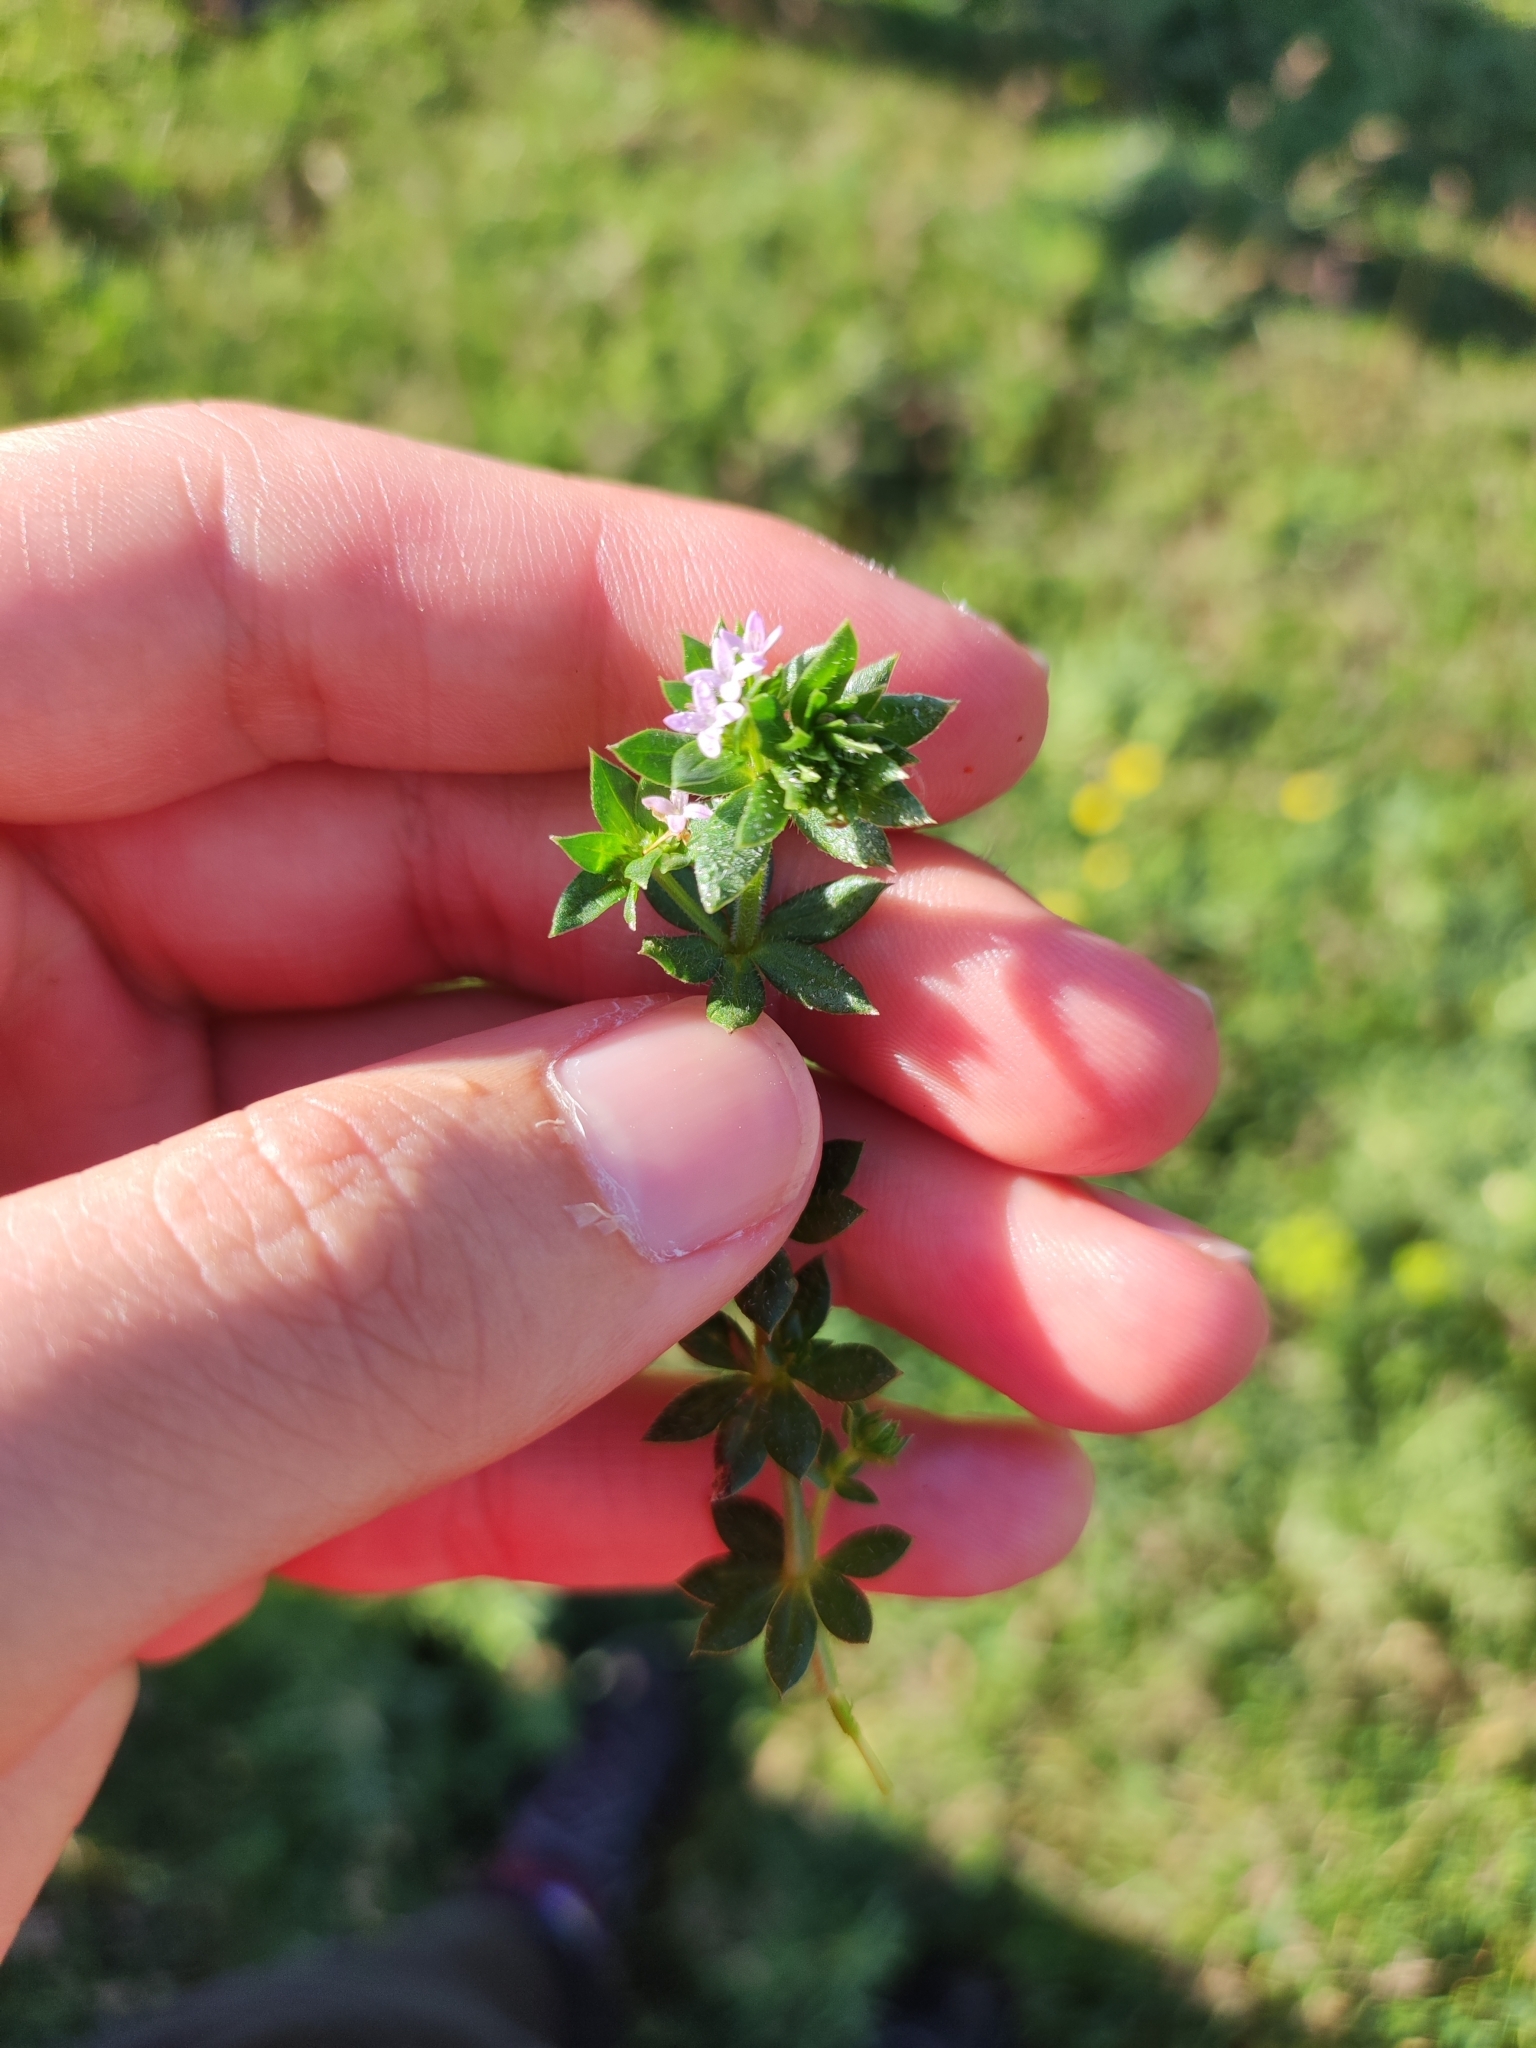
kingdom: Plantae
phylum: Tracheophyta
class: Magnoliopsida
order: Gentianales
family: Rubiaceae
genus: Sherardia
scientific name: Sherardia arvensis
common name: Field madder
